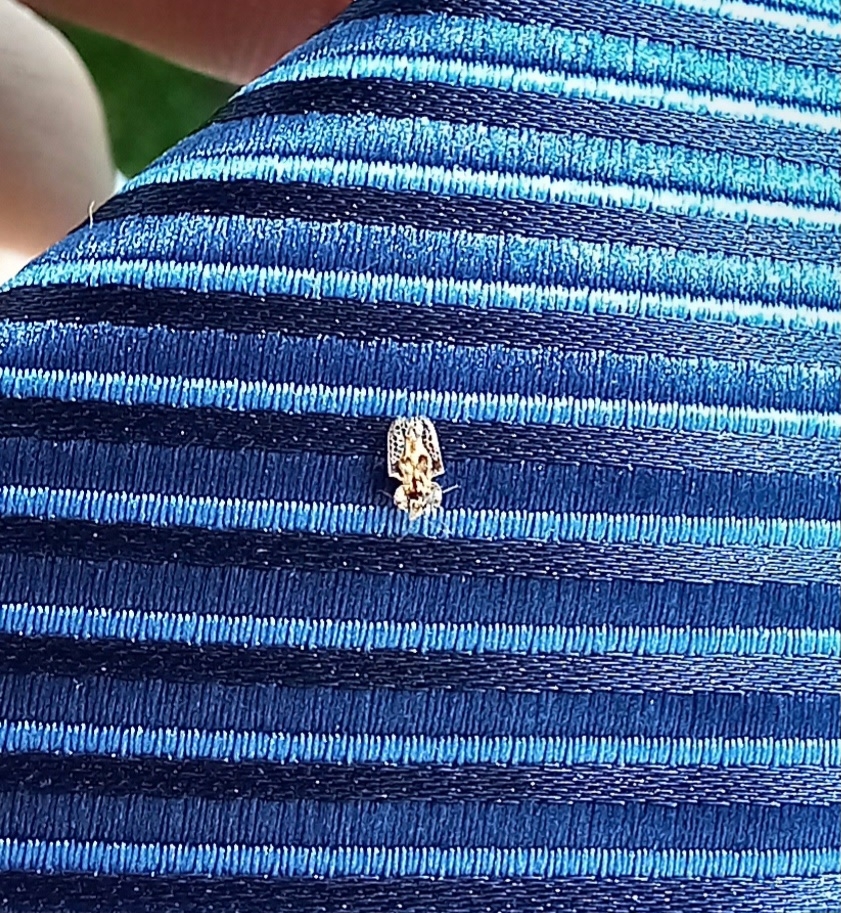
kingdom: Animalia
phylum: Arthropoda
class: Insecta
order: Hemiptera
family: Tingidae
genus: Corythucha
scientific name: Corythucha arcuata
